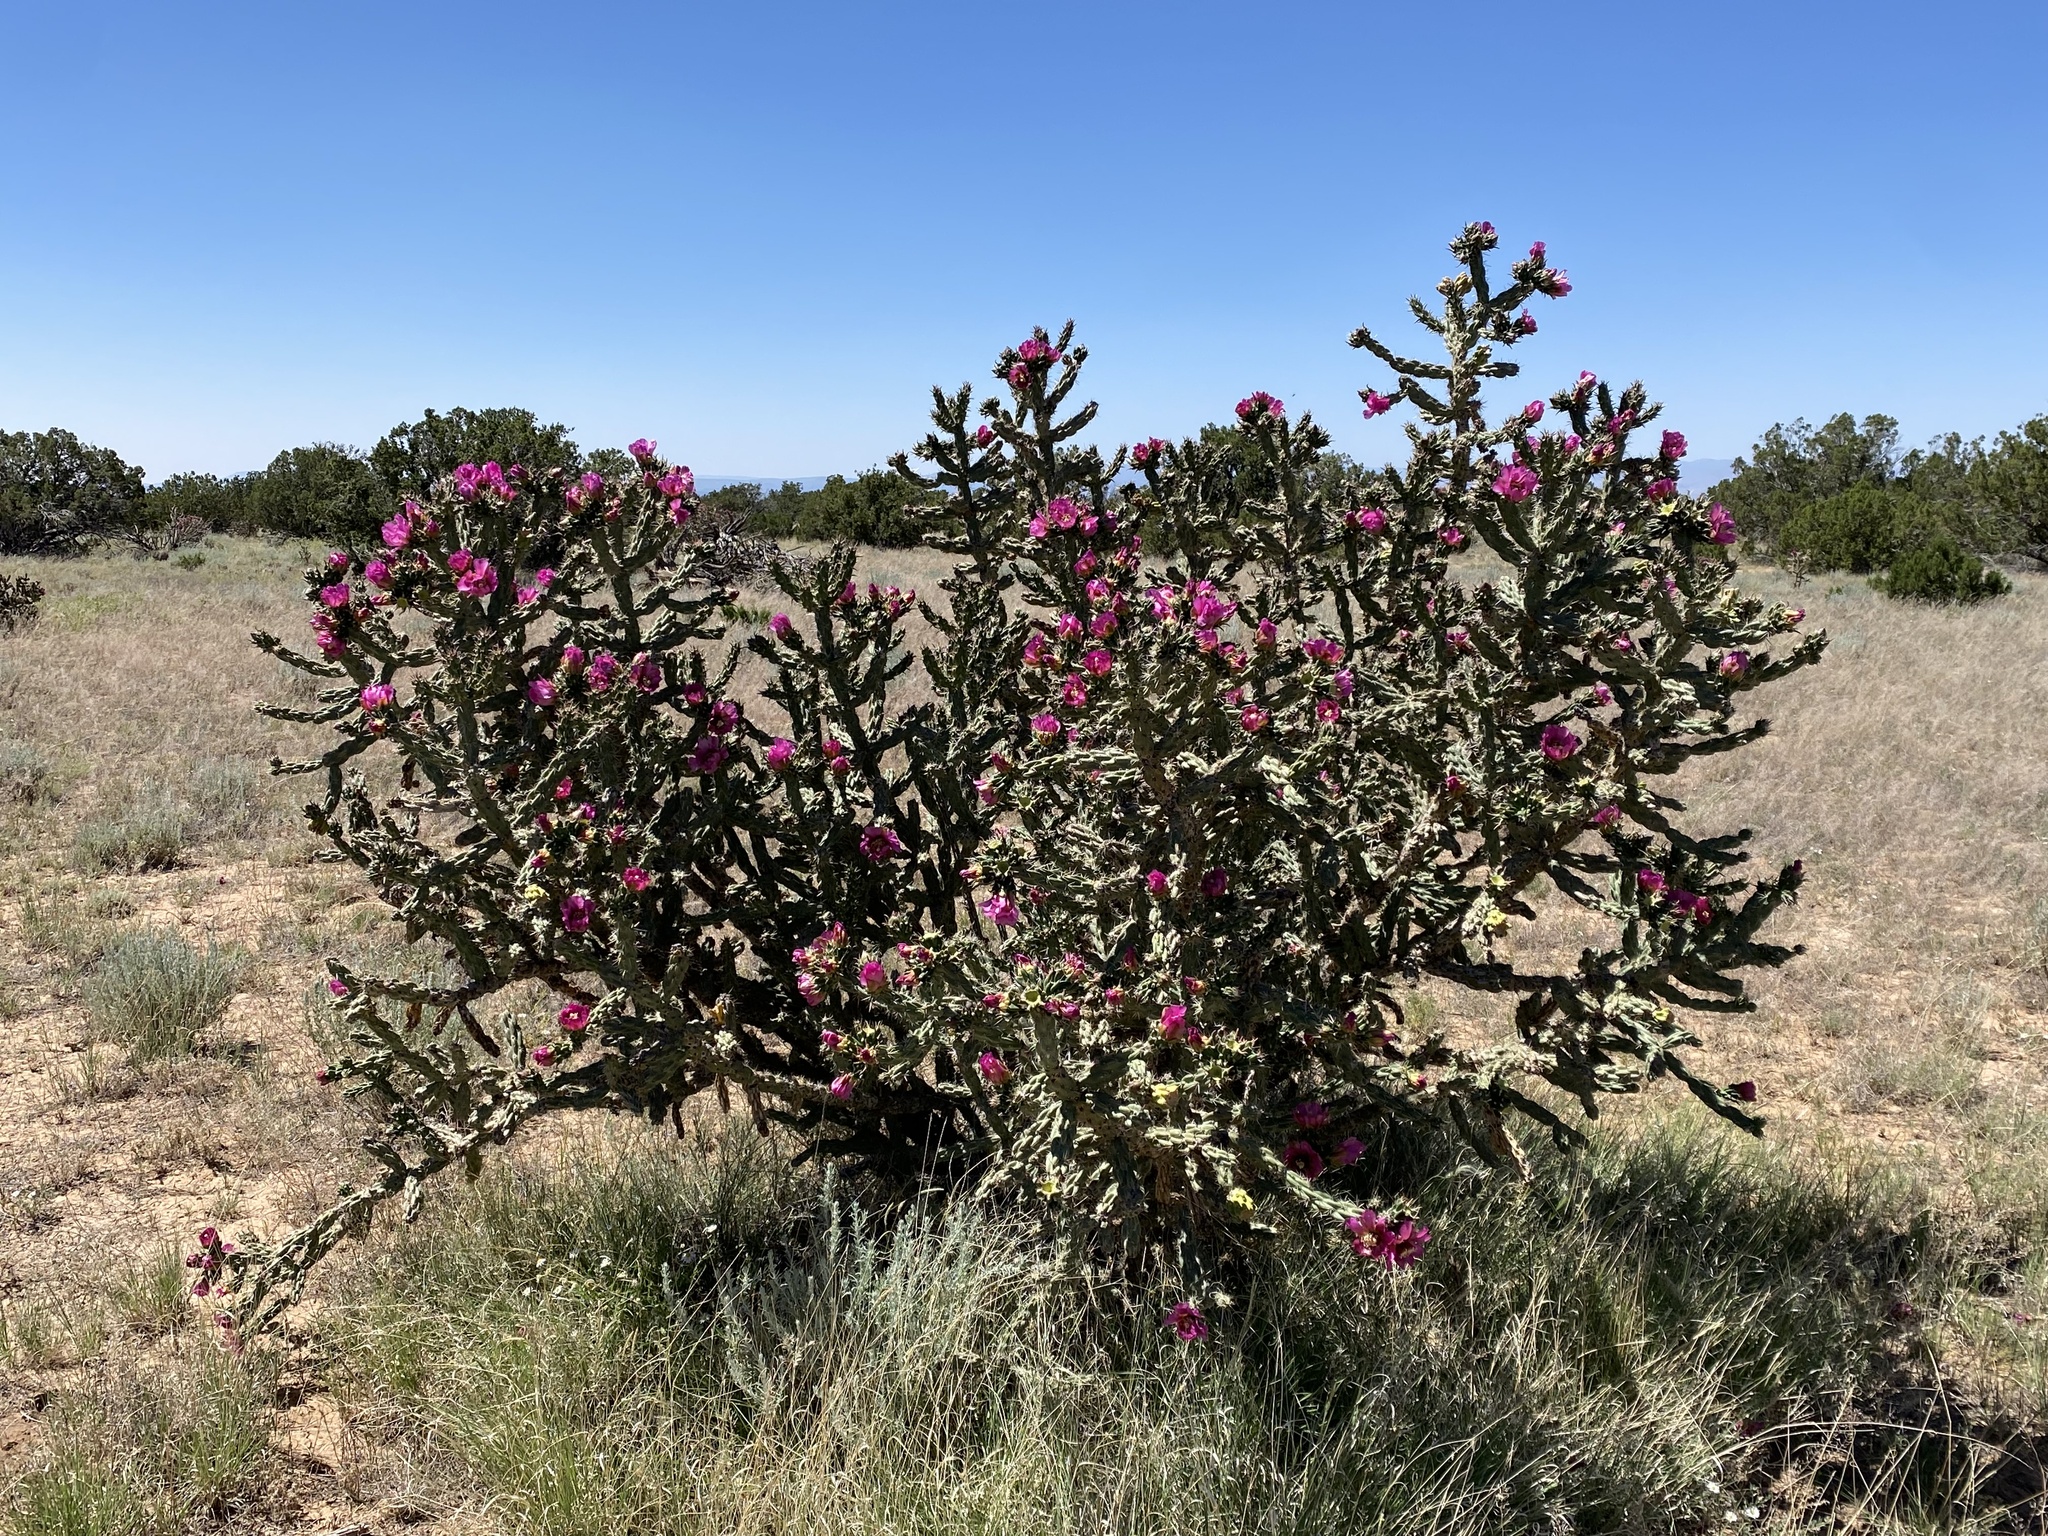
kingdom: Plantae
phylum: Tracheophyta
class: Magnoliopsida
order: Caryophyllales
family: Cactaceae
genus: Cylindropuntia
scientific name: Cylindropuntia imbricata
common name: Candelabrum cactus
